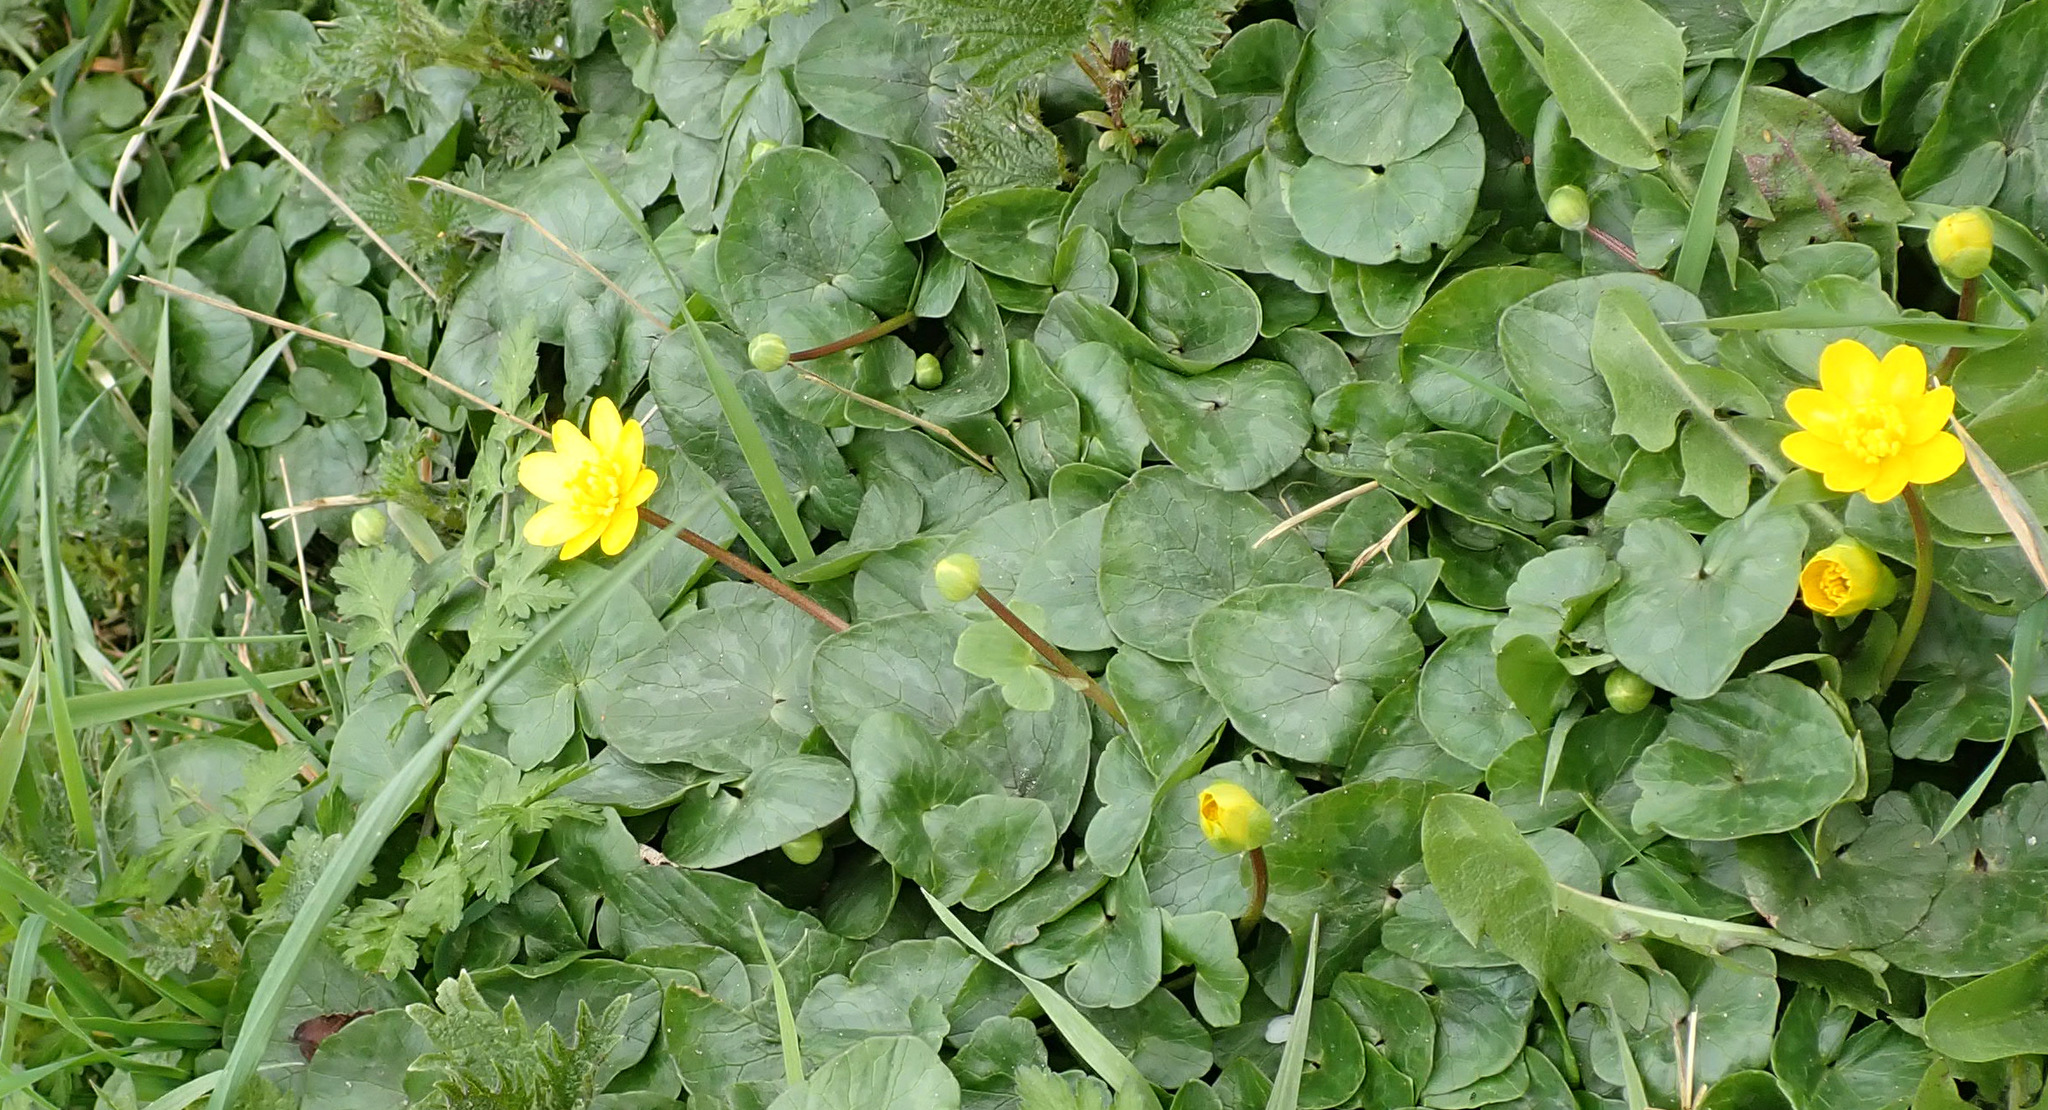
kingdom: Plantae
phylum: Tracheophyta
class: Magnoliopsida
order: Ranunculales
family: Ranunculaceae
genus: Ficaria
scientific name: Ficaria verna
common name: Lesser celandine
